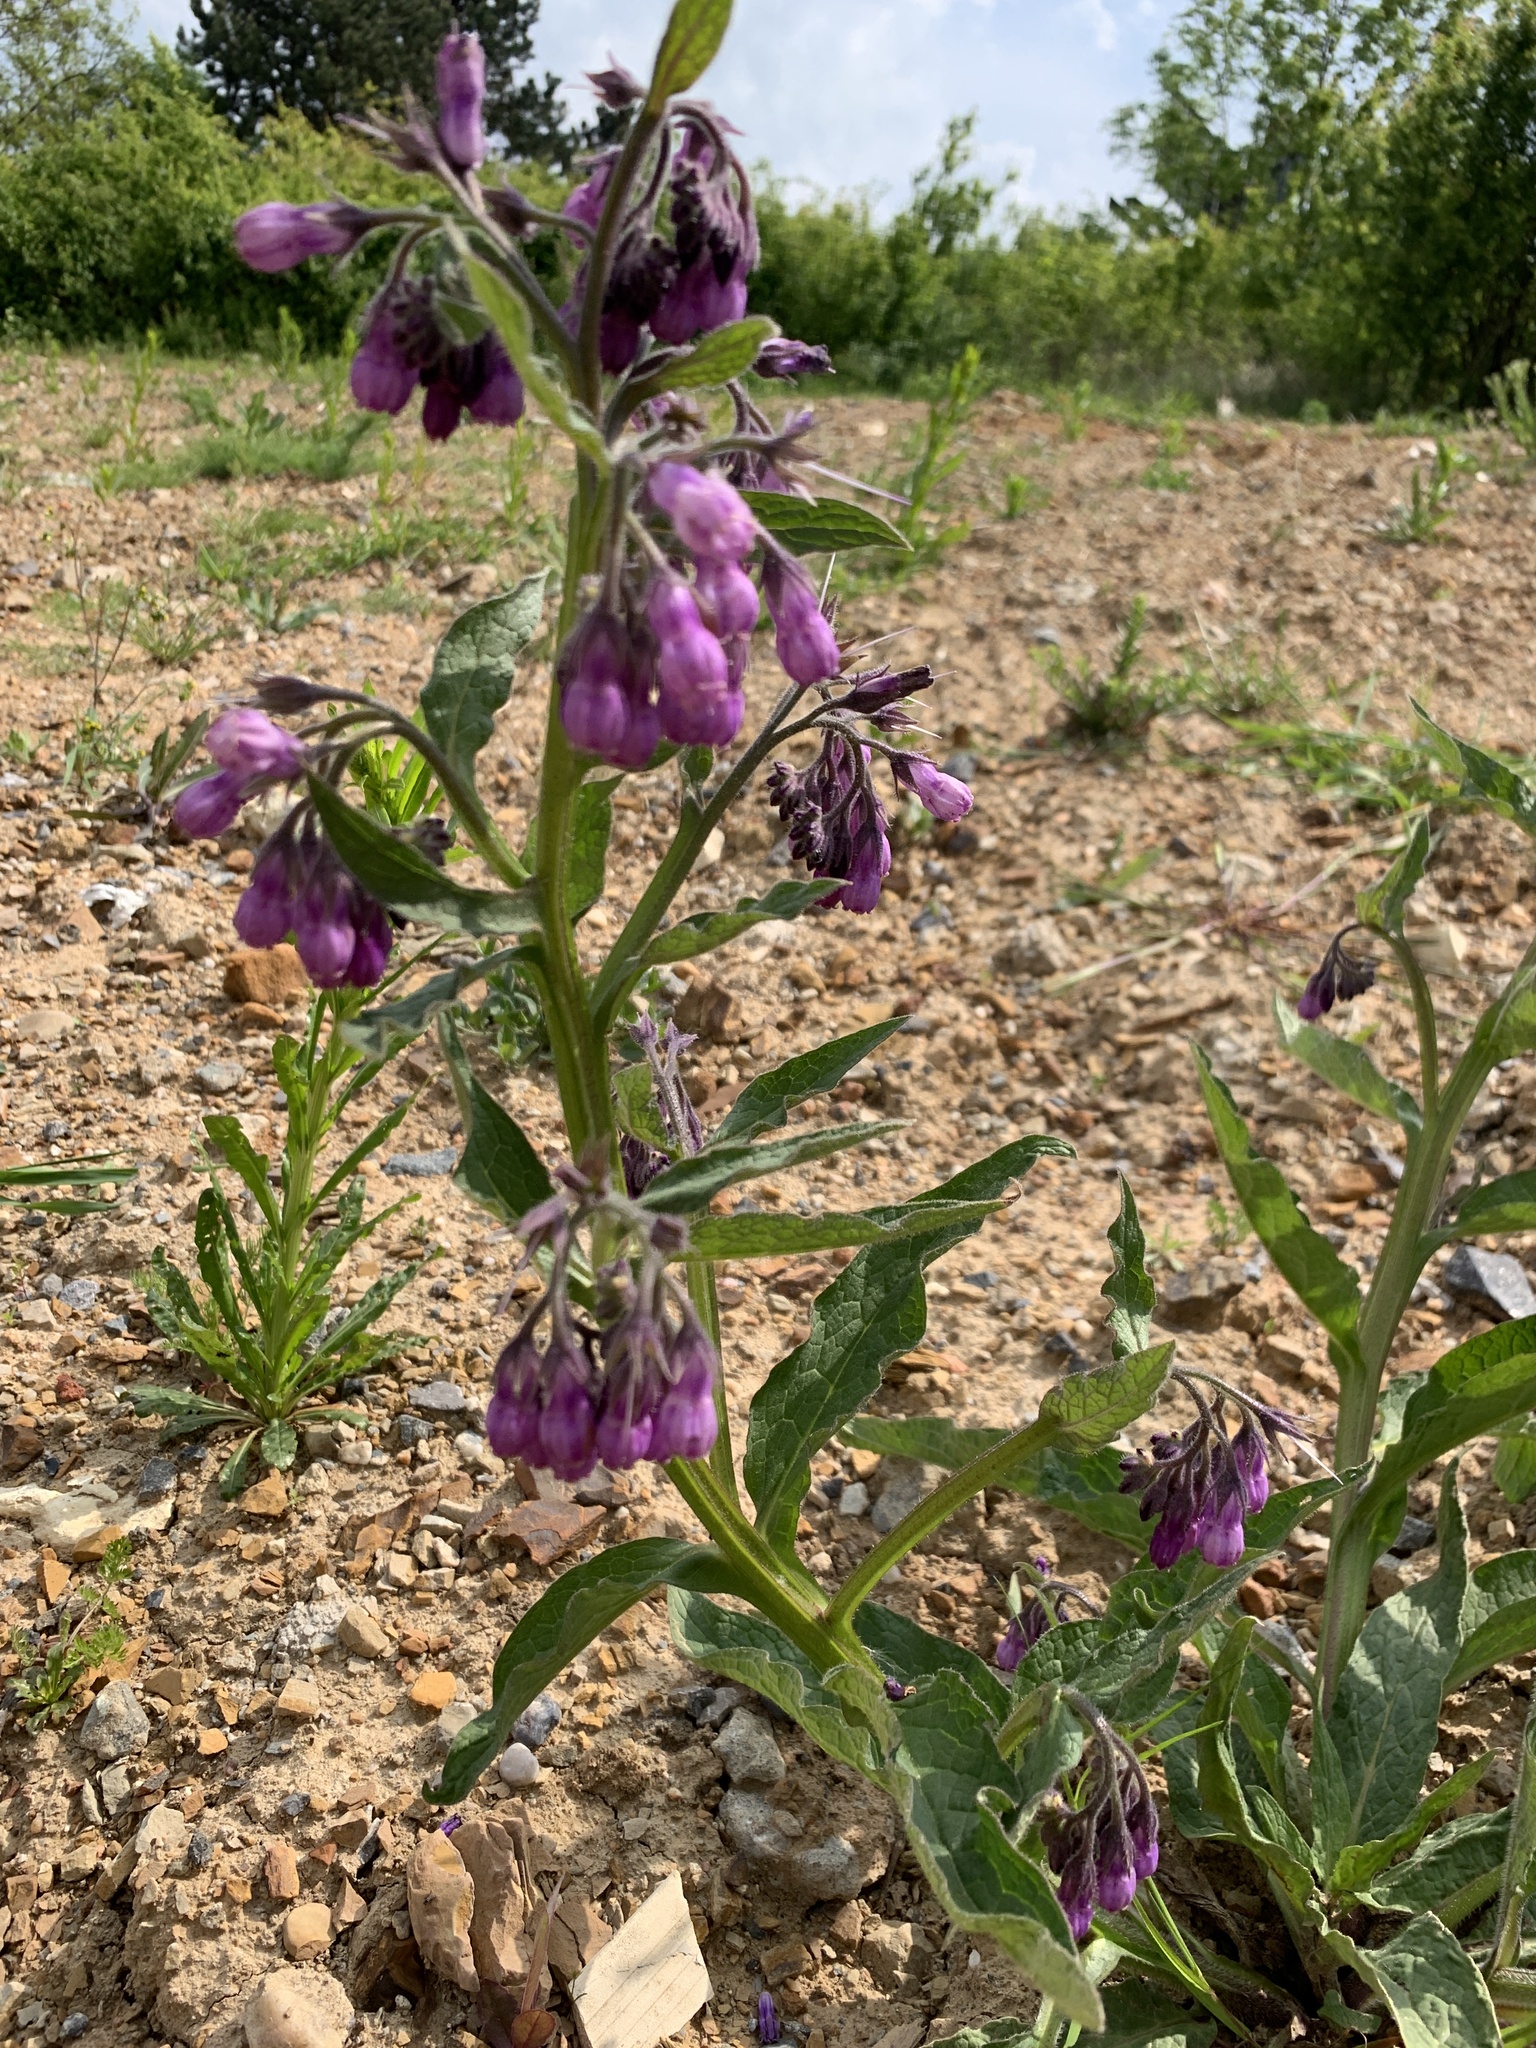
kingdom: Plantae
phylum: Tracheophyta
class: Magnoliopsida
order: Boraginales
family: Boraginaceae
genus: Symphytum
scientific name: Symphytum officinale
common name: Common comfrey
